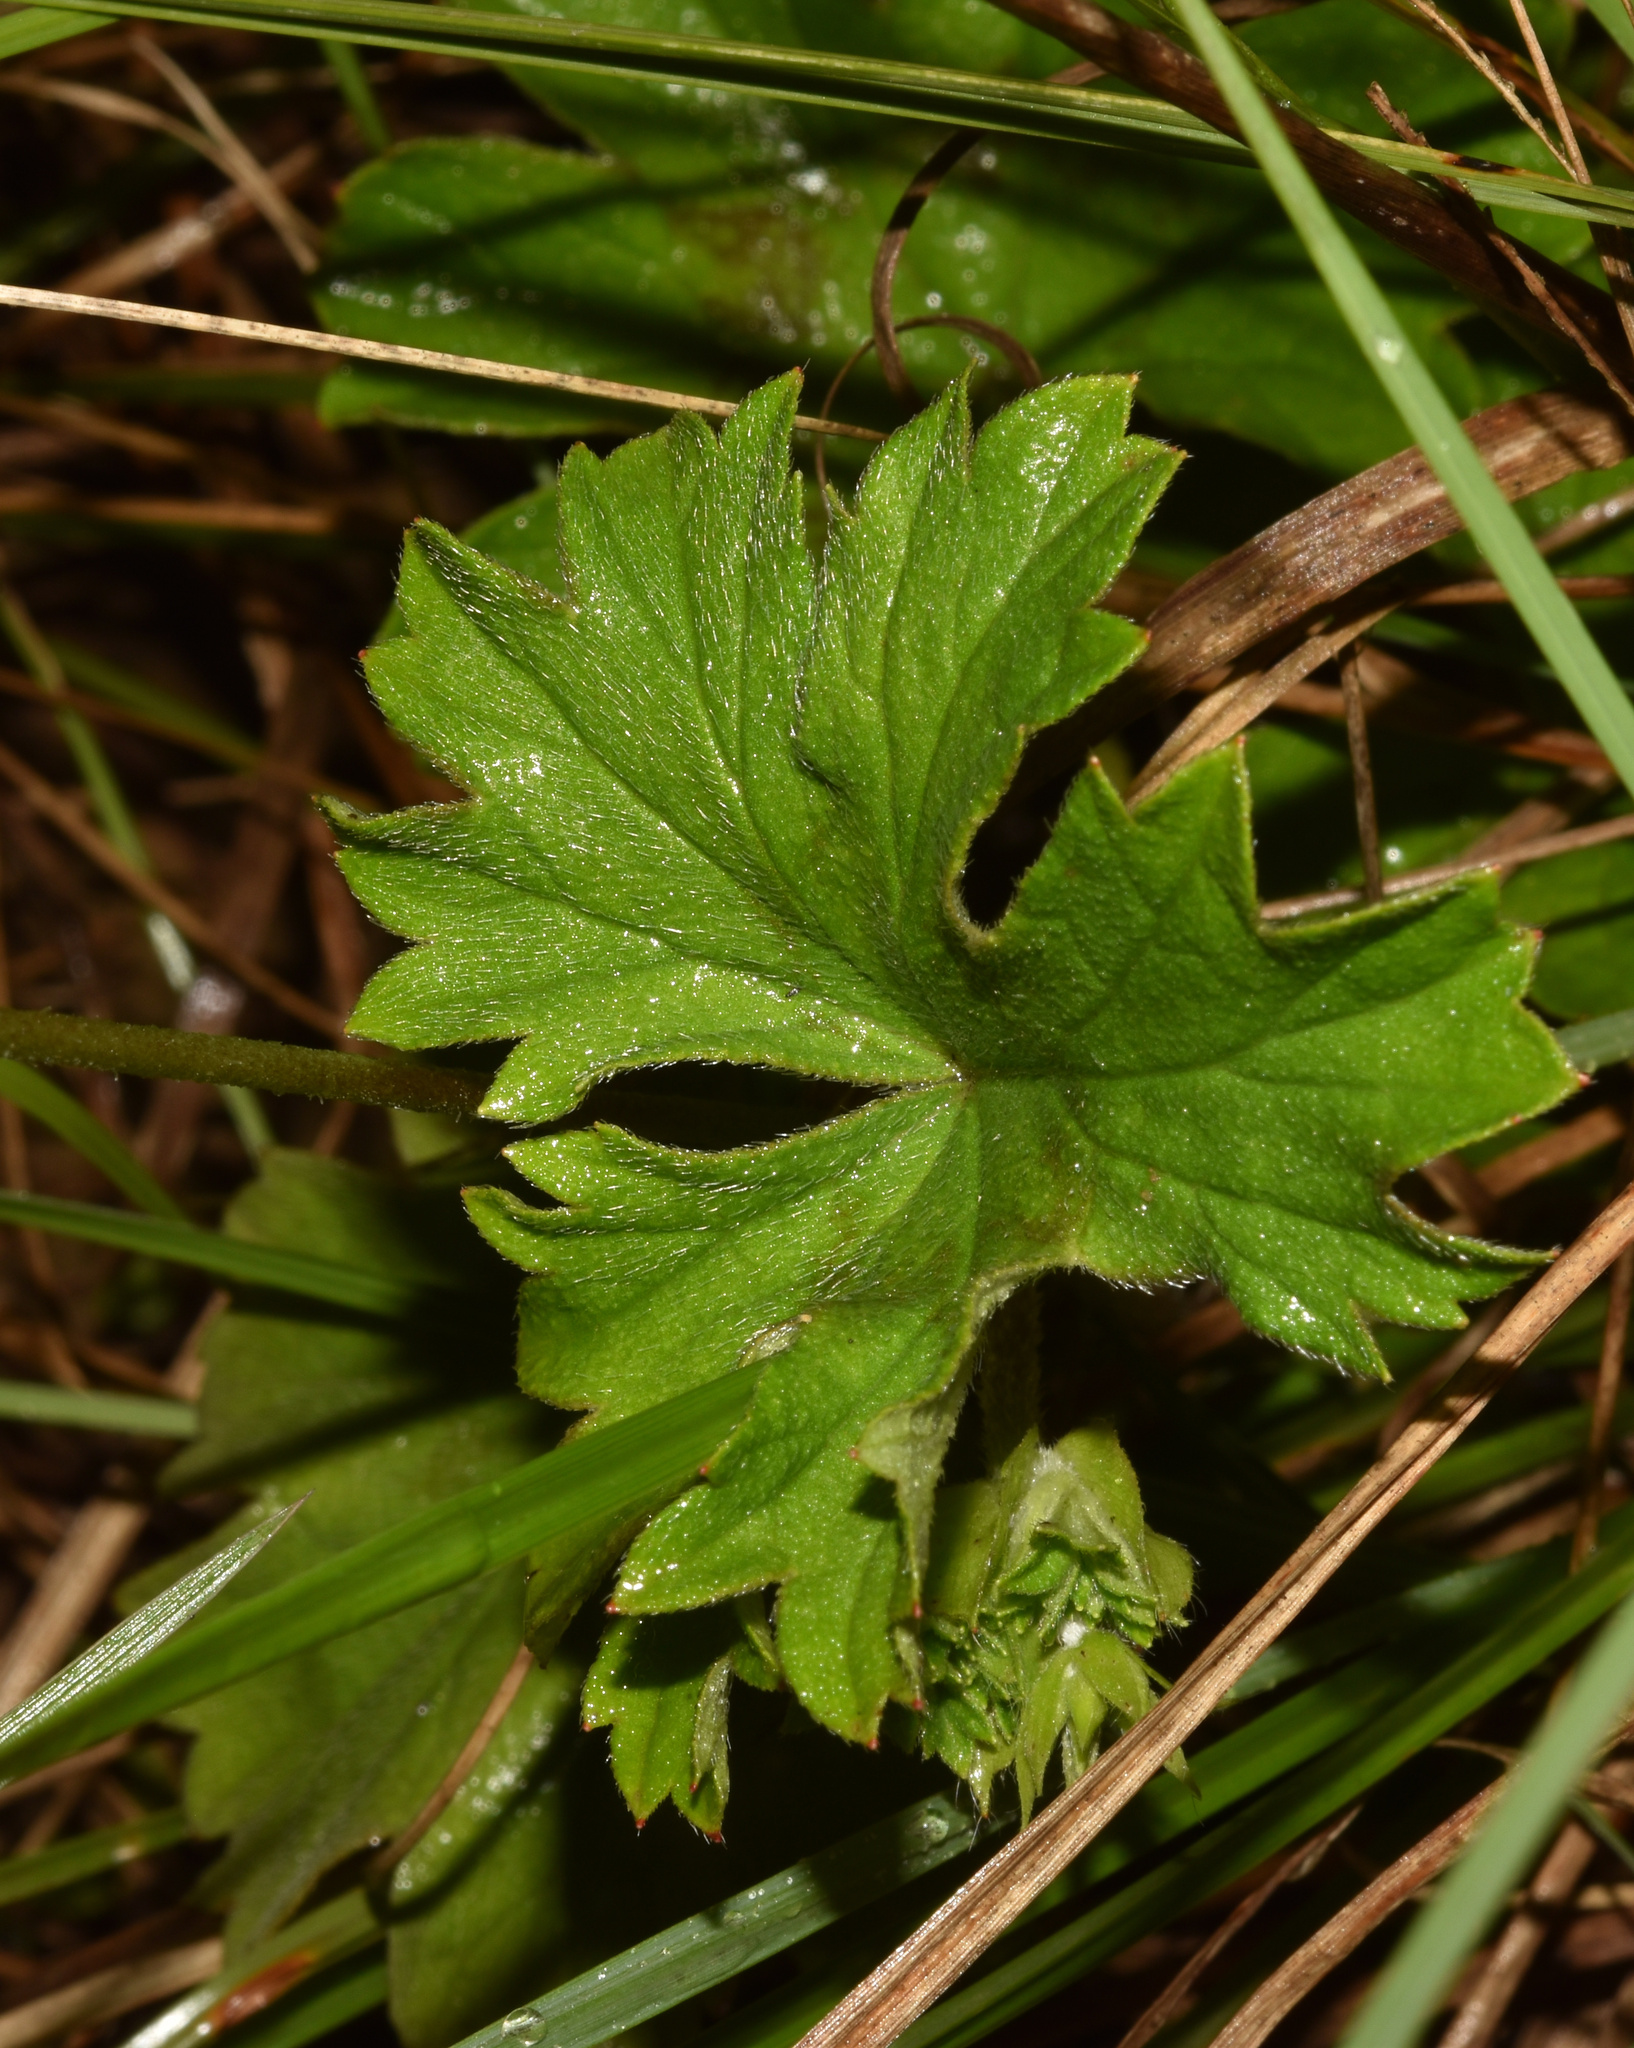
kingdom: Plantae
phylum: Tracheophyta
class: Magnoliopsida
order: Geraniales
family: Geraniaceae
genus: Pelargonium
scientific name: Pelargonium ranunculophyllum
